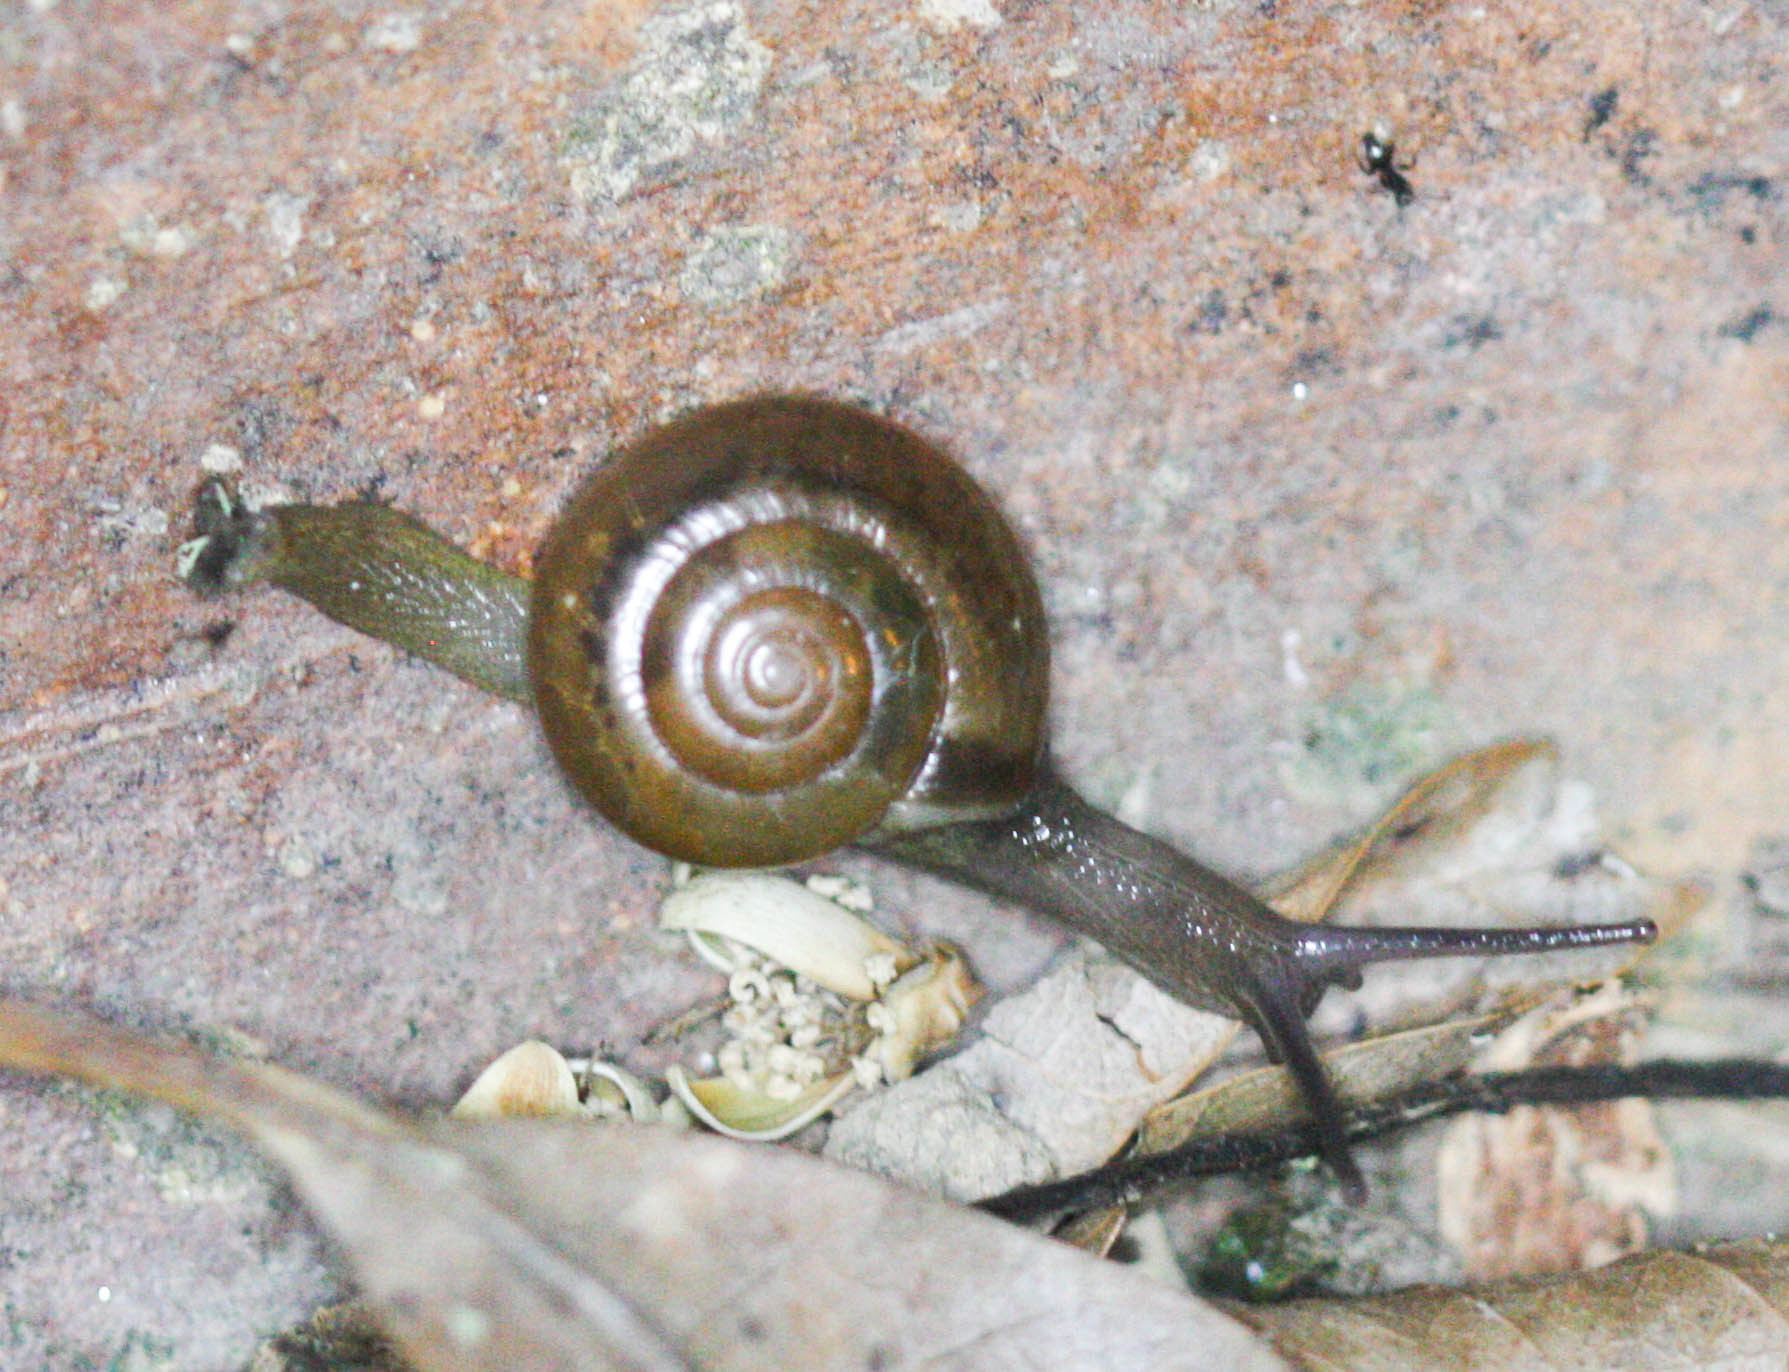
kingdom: Animalia
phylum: Mollusca
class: Gastropoda
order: Stylommatophora
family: Ariophantidae
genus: Macrochlamys
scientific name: Macrochlamys malaccana
